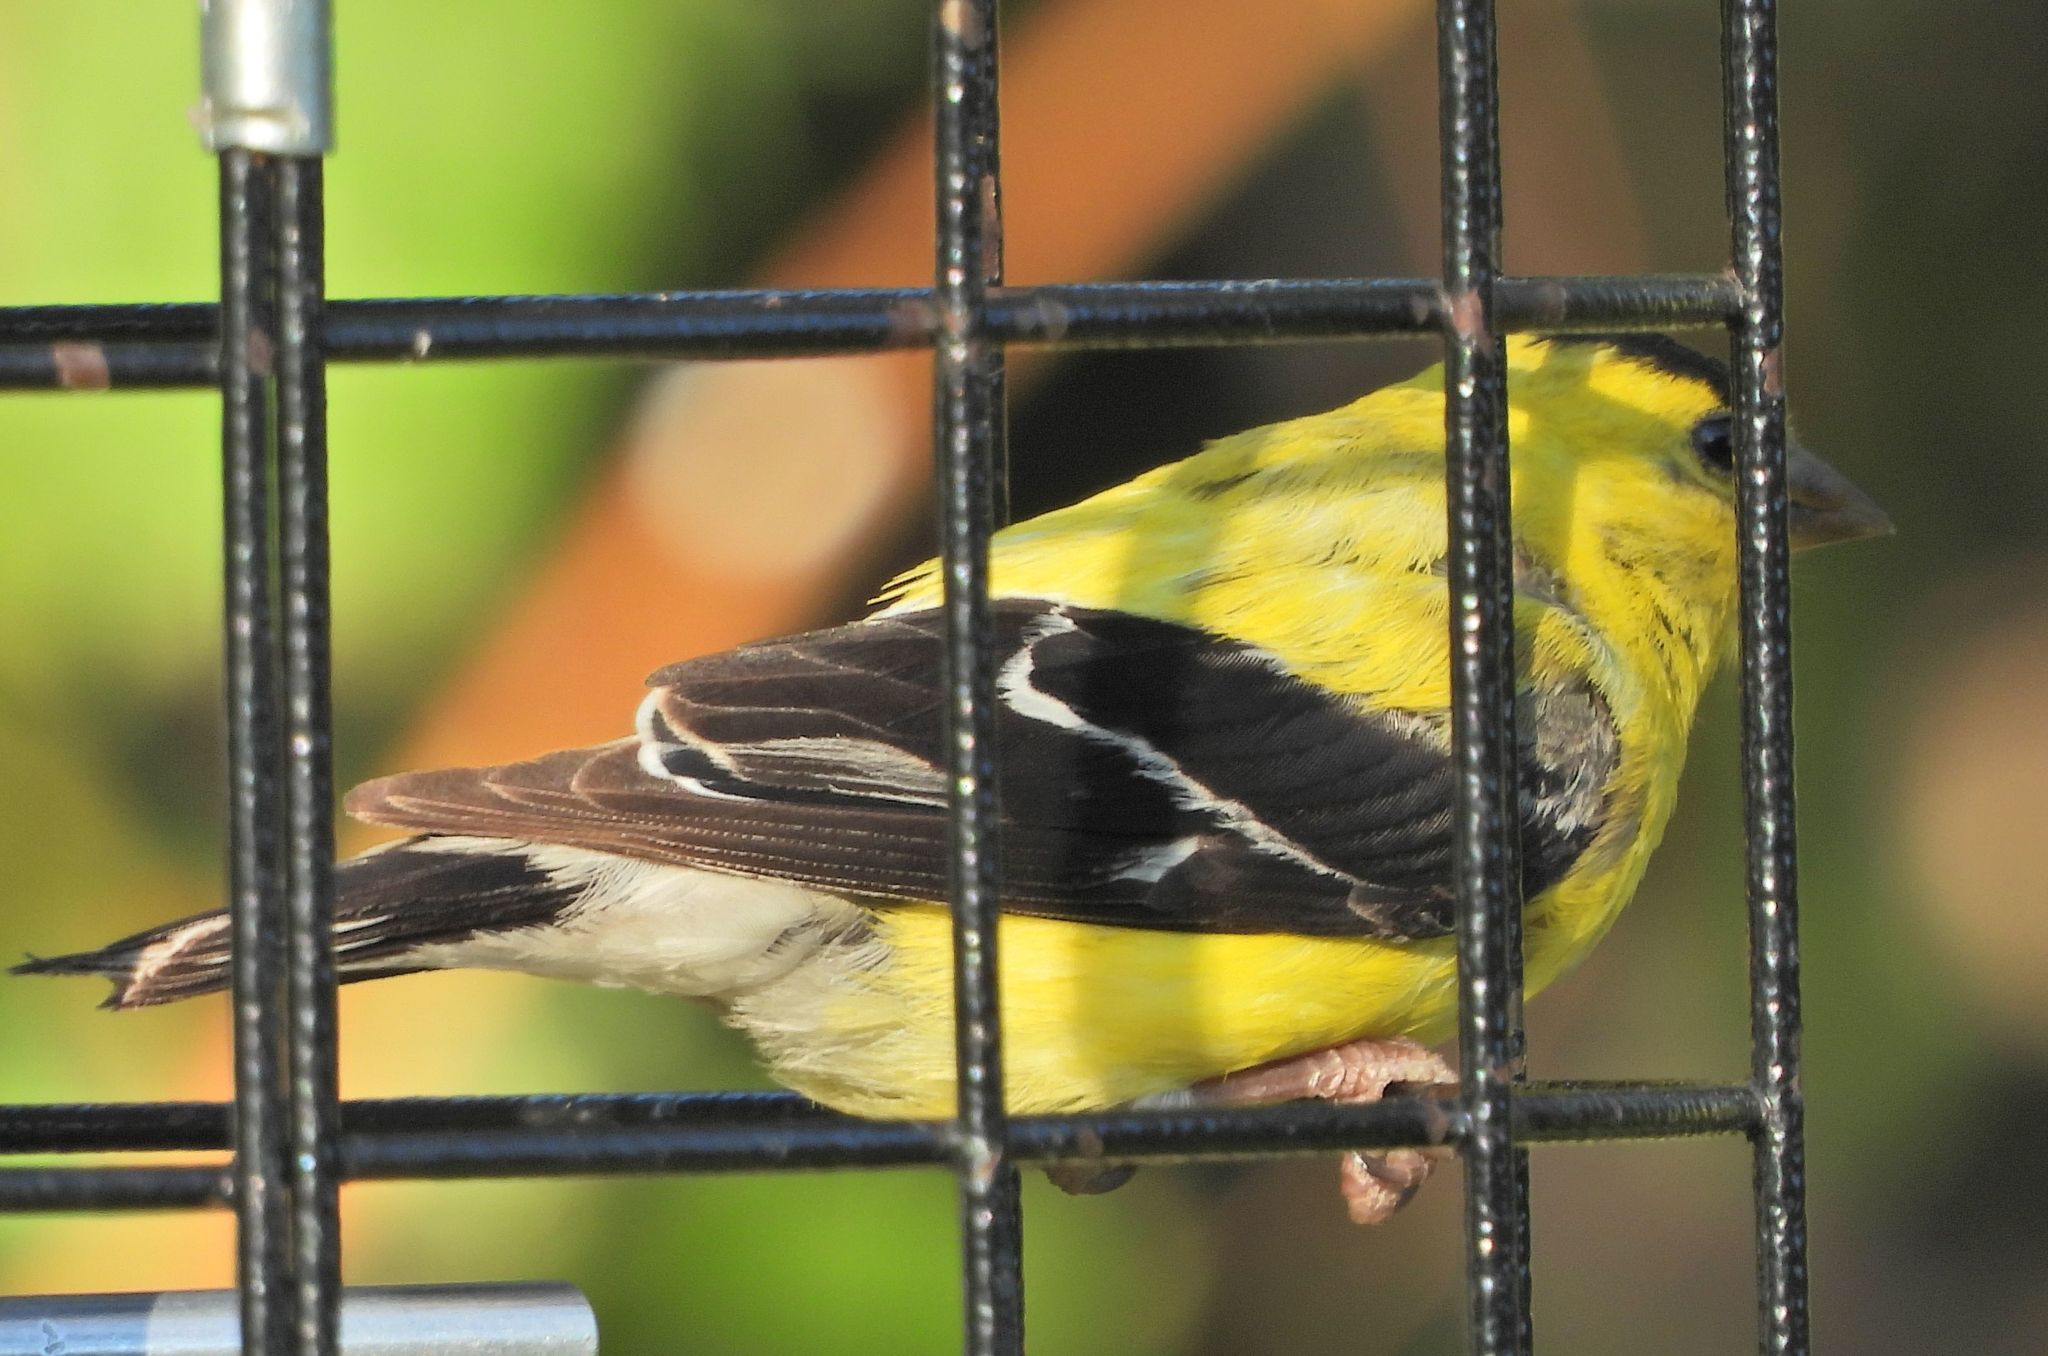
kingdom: Animalia
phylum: Chordata
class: Aves
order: Passeriformes
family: Fringillidae
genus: Spinus
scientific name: Spinus tristis
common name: American goldfinch
